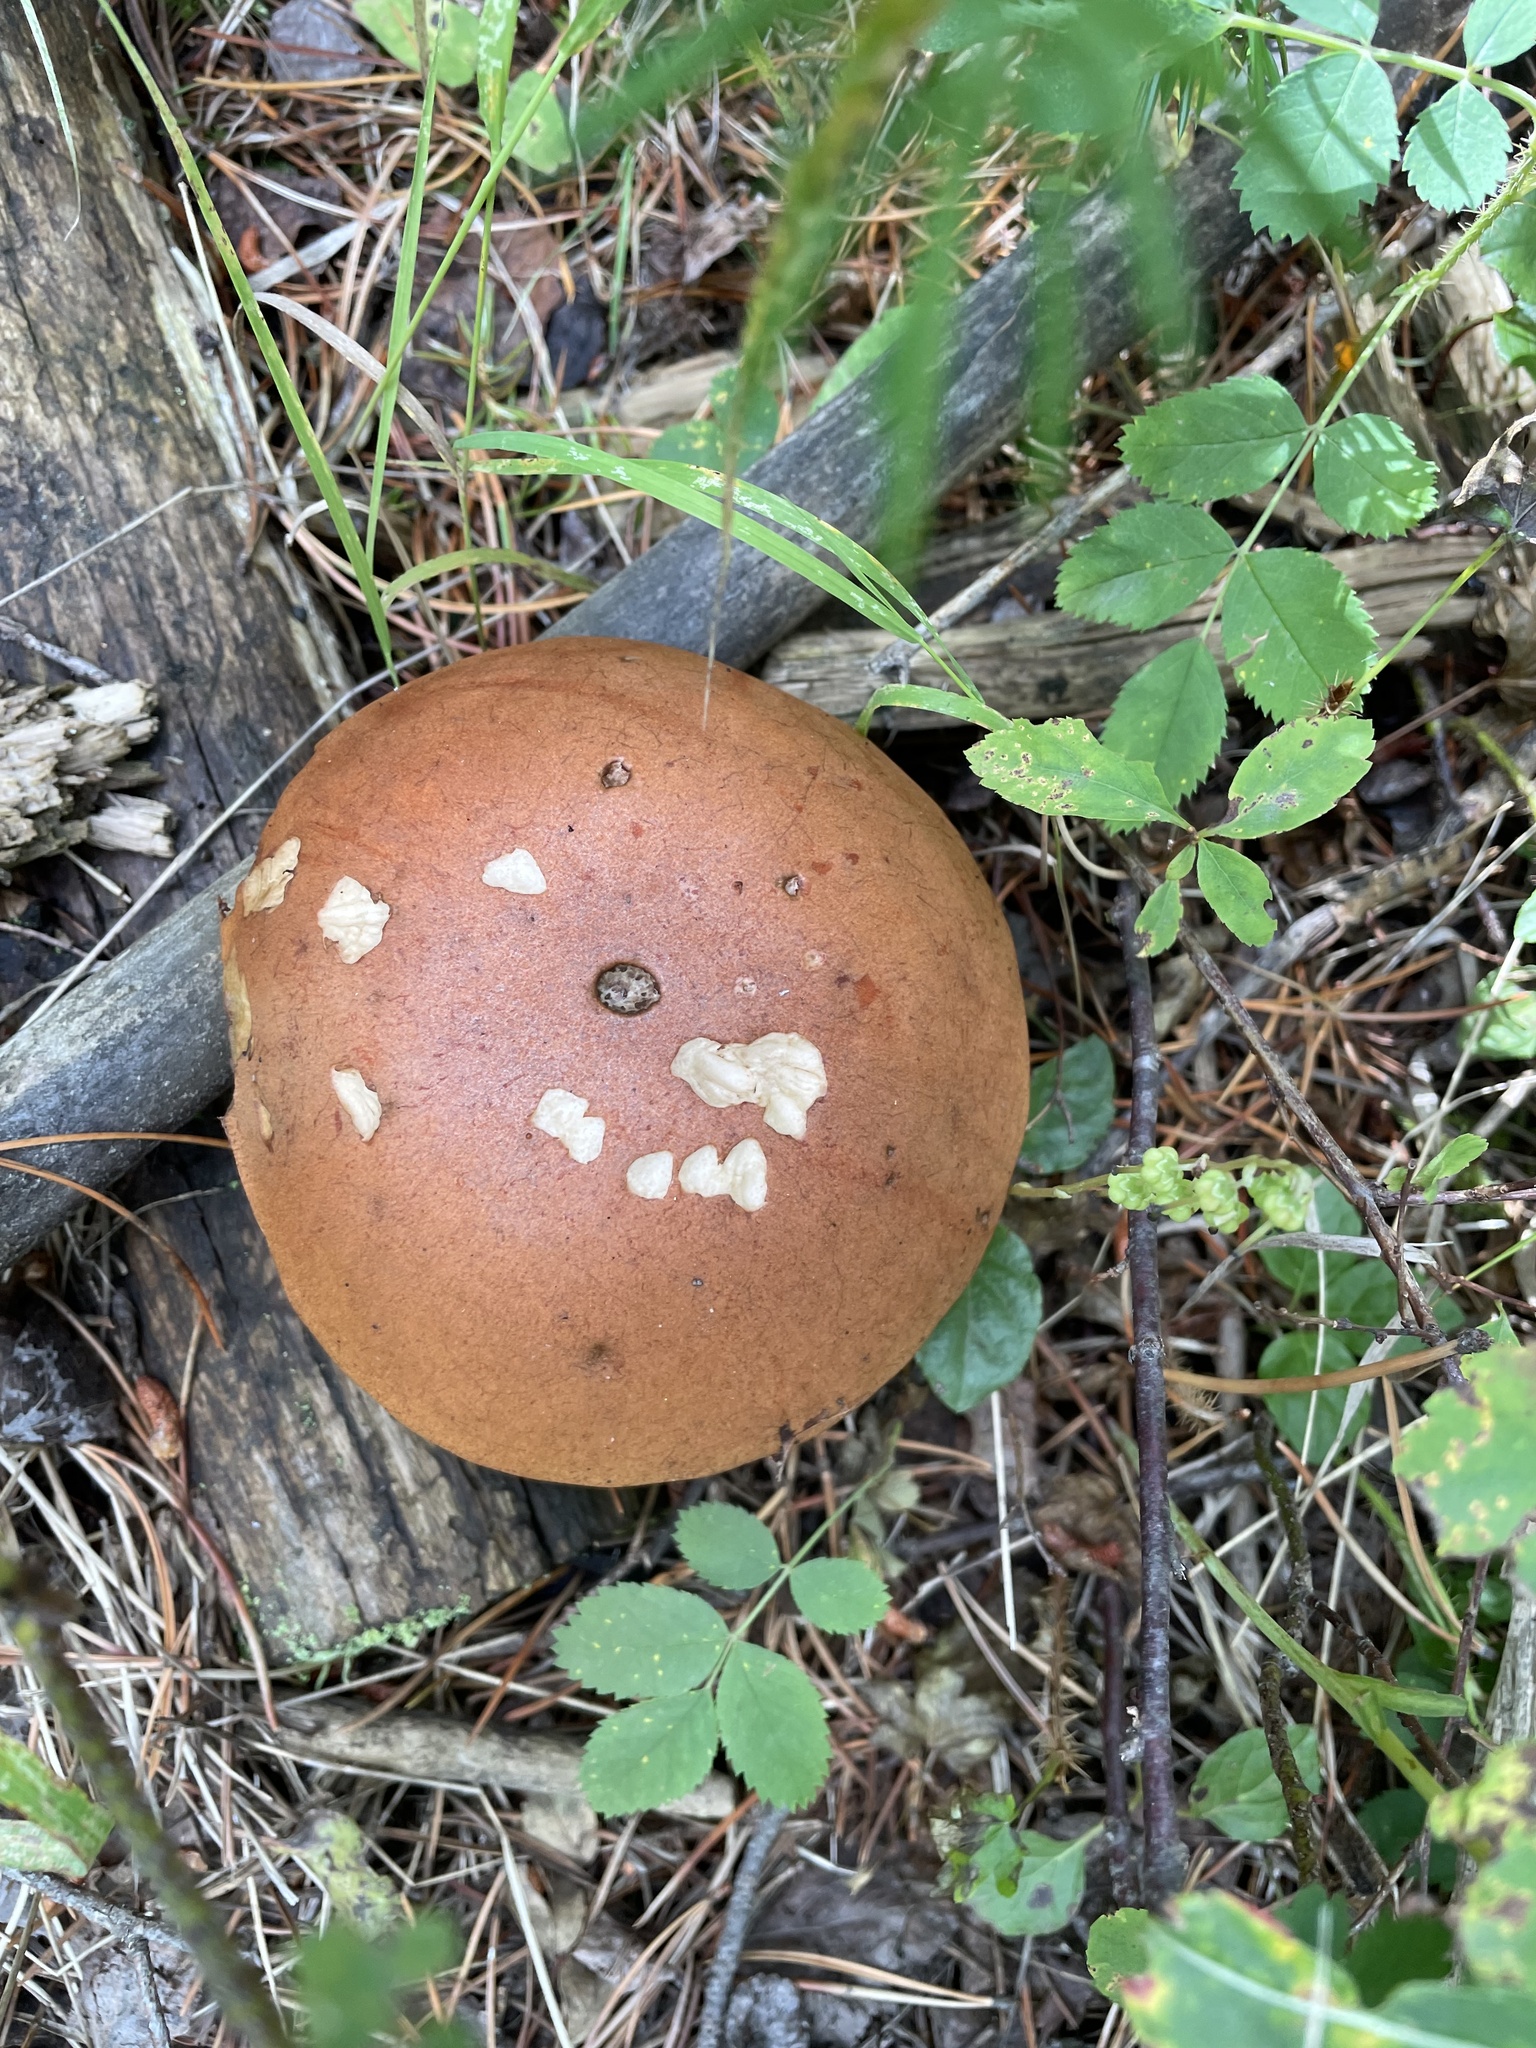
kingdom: Fungi
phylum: Basidiomycota
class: Agaricomycetes
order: Boletales
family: Boletaceae
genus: Leccinum
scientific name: Leccinum insigne
